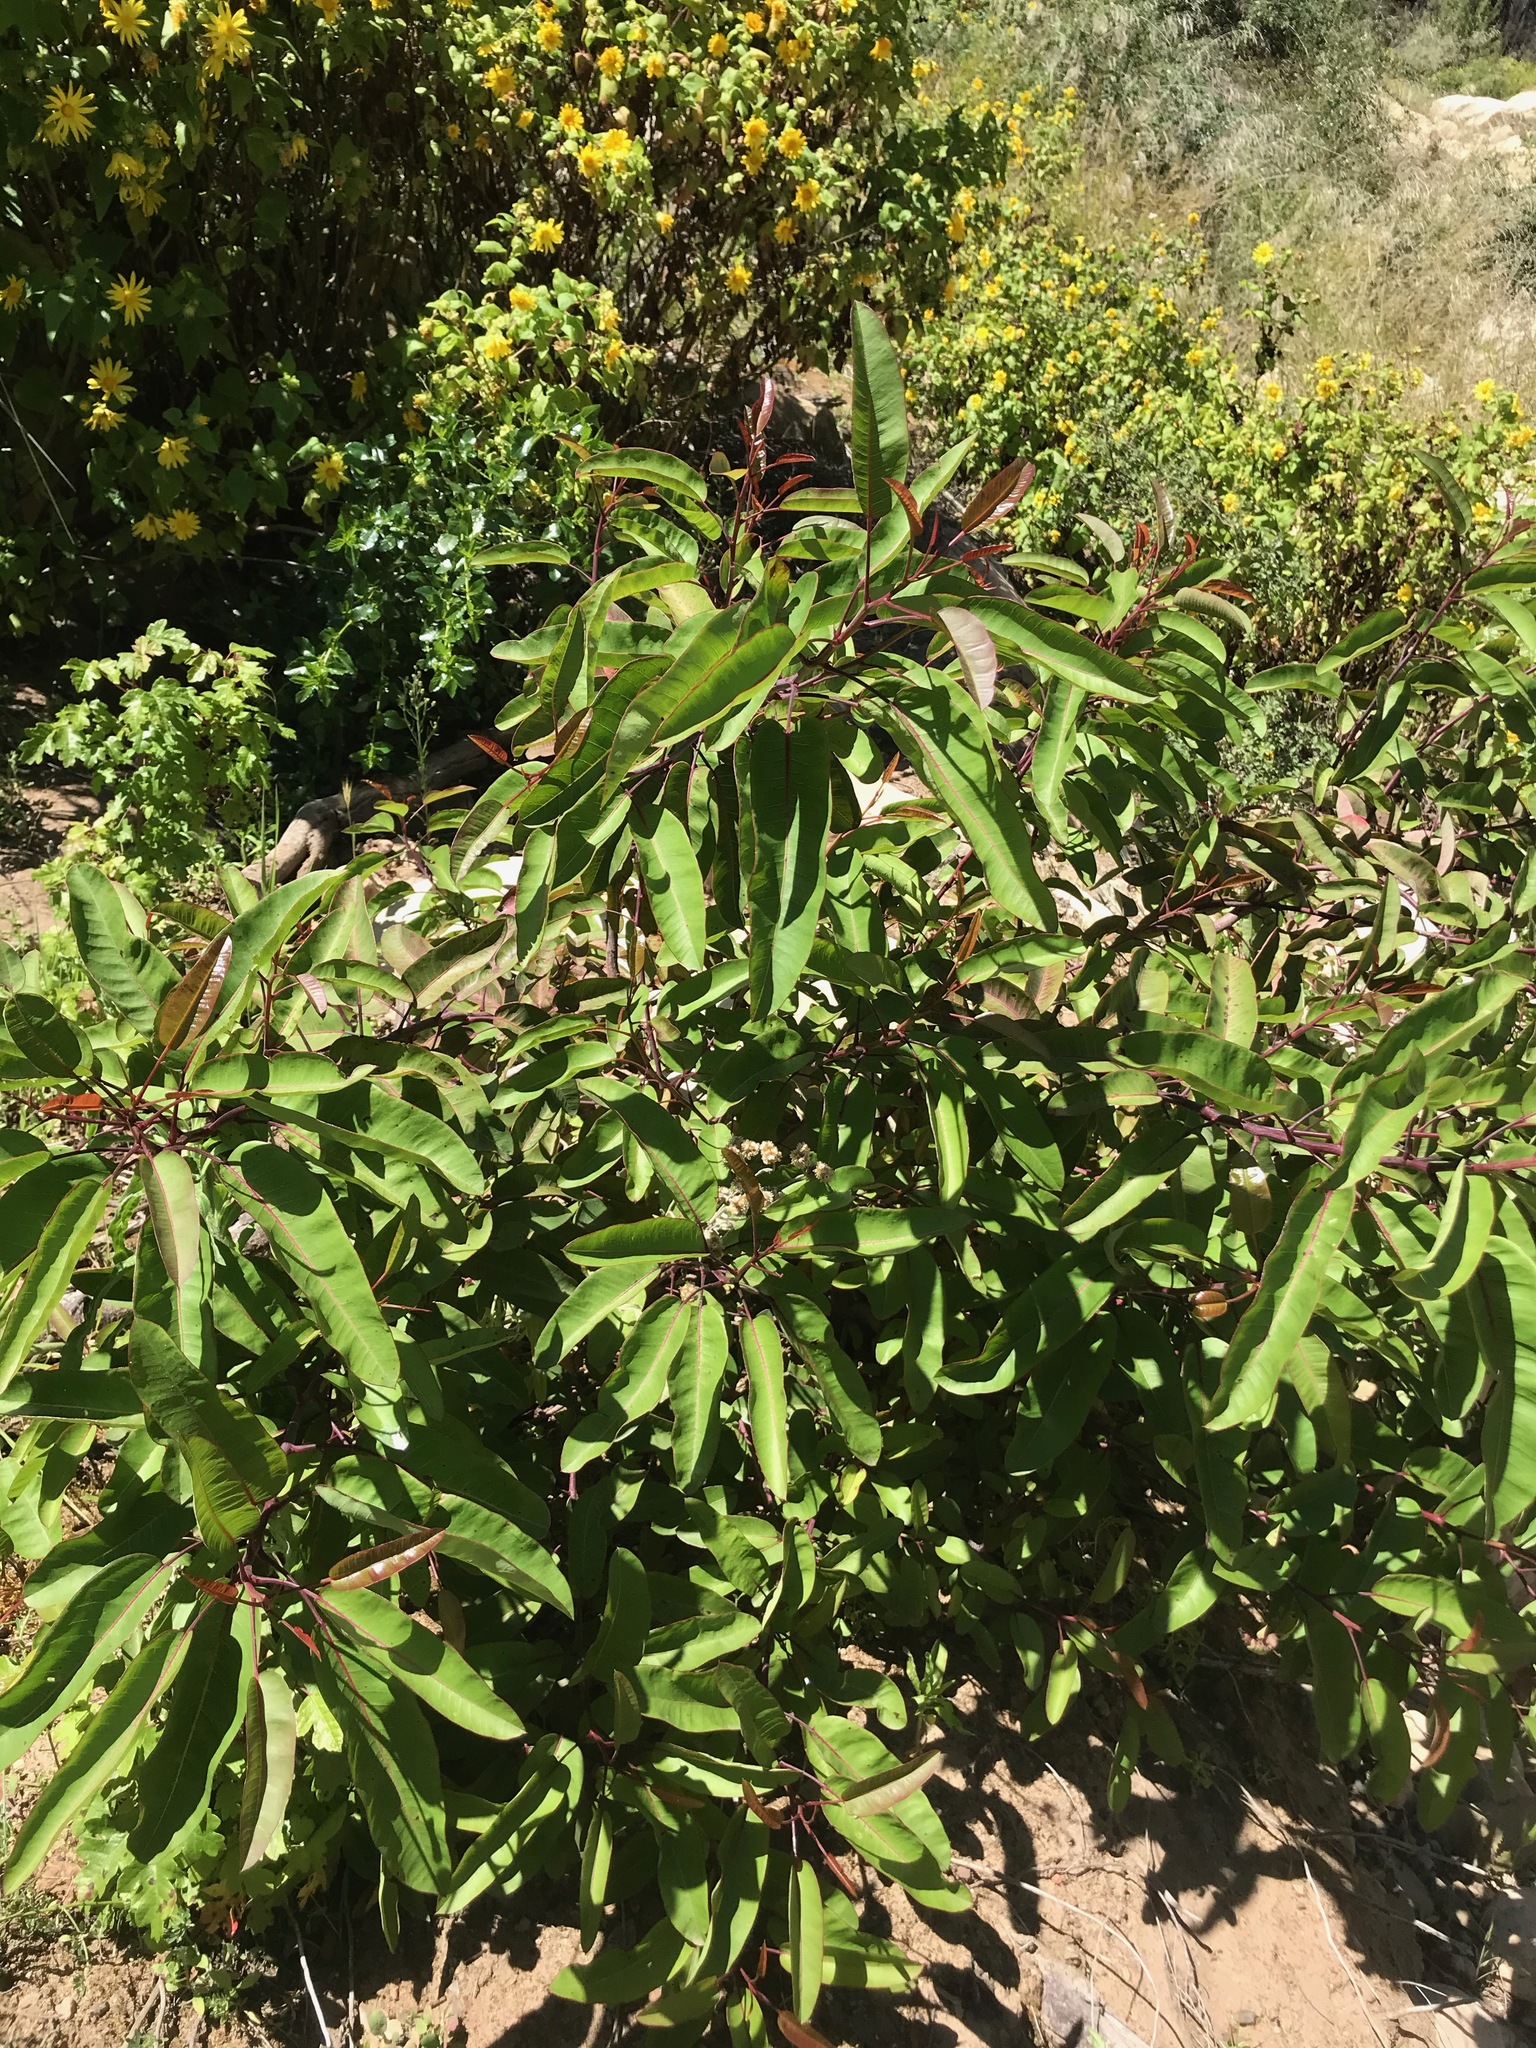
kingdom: Plantae
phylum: Tracheophyta
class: Magnoliopsida
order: Sapindales
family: Anacardiaceae
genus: Malosma
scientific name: Malosma laurina
